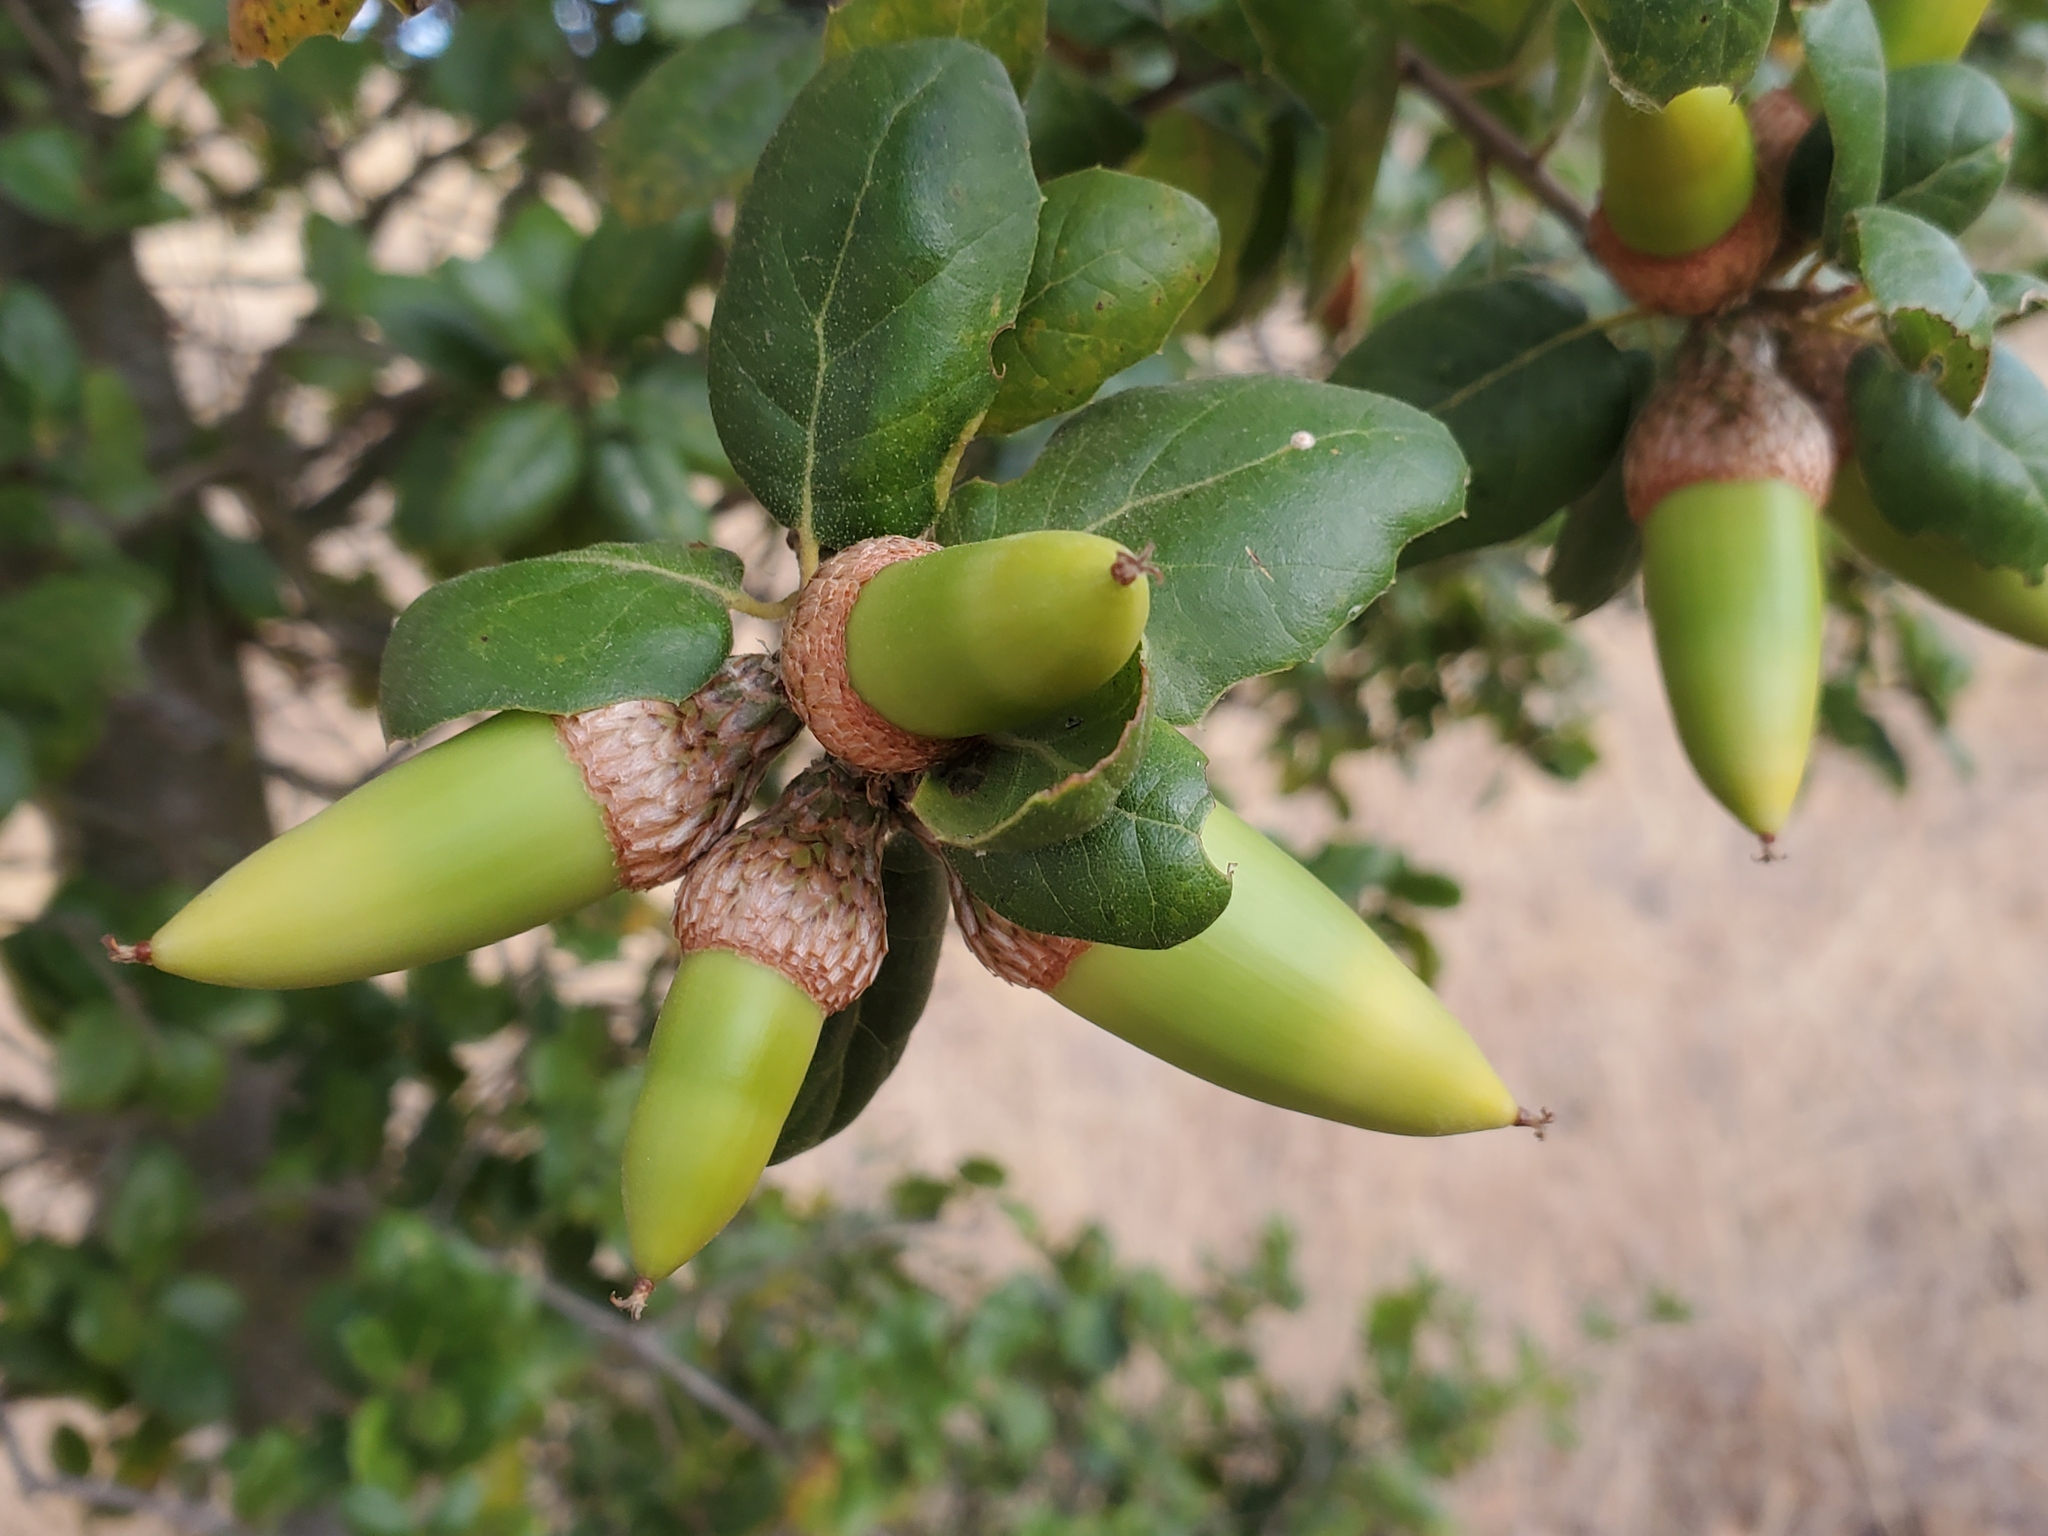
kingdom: Plantae
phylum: Tracheophyta
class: Magnoliopsida
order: Fagales
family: Fagaceae
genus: Quercus
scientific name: Quercus agrifolia
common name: California live oak
